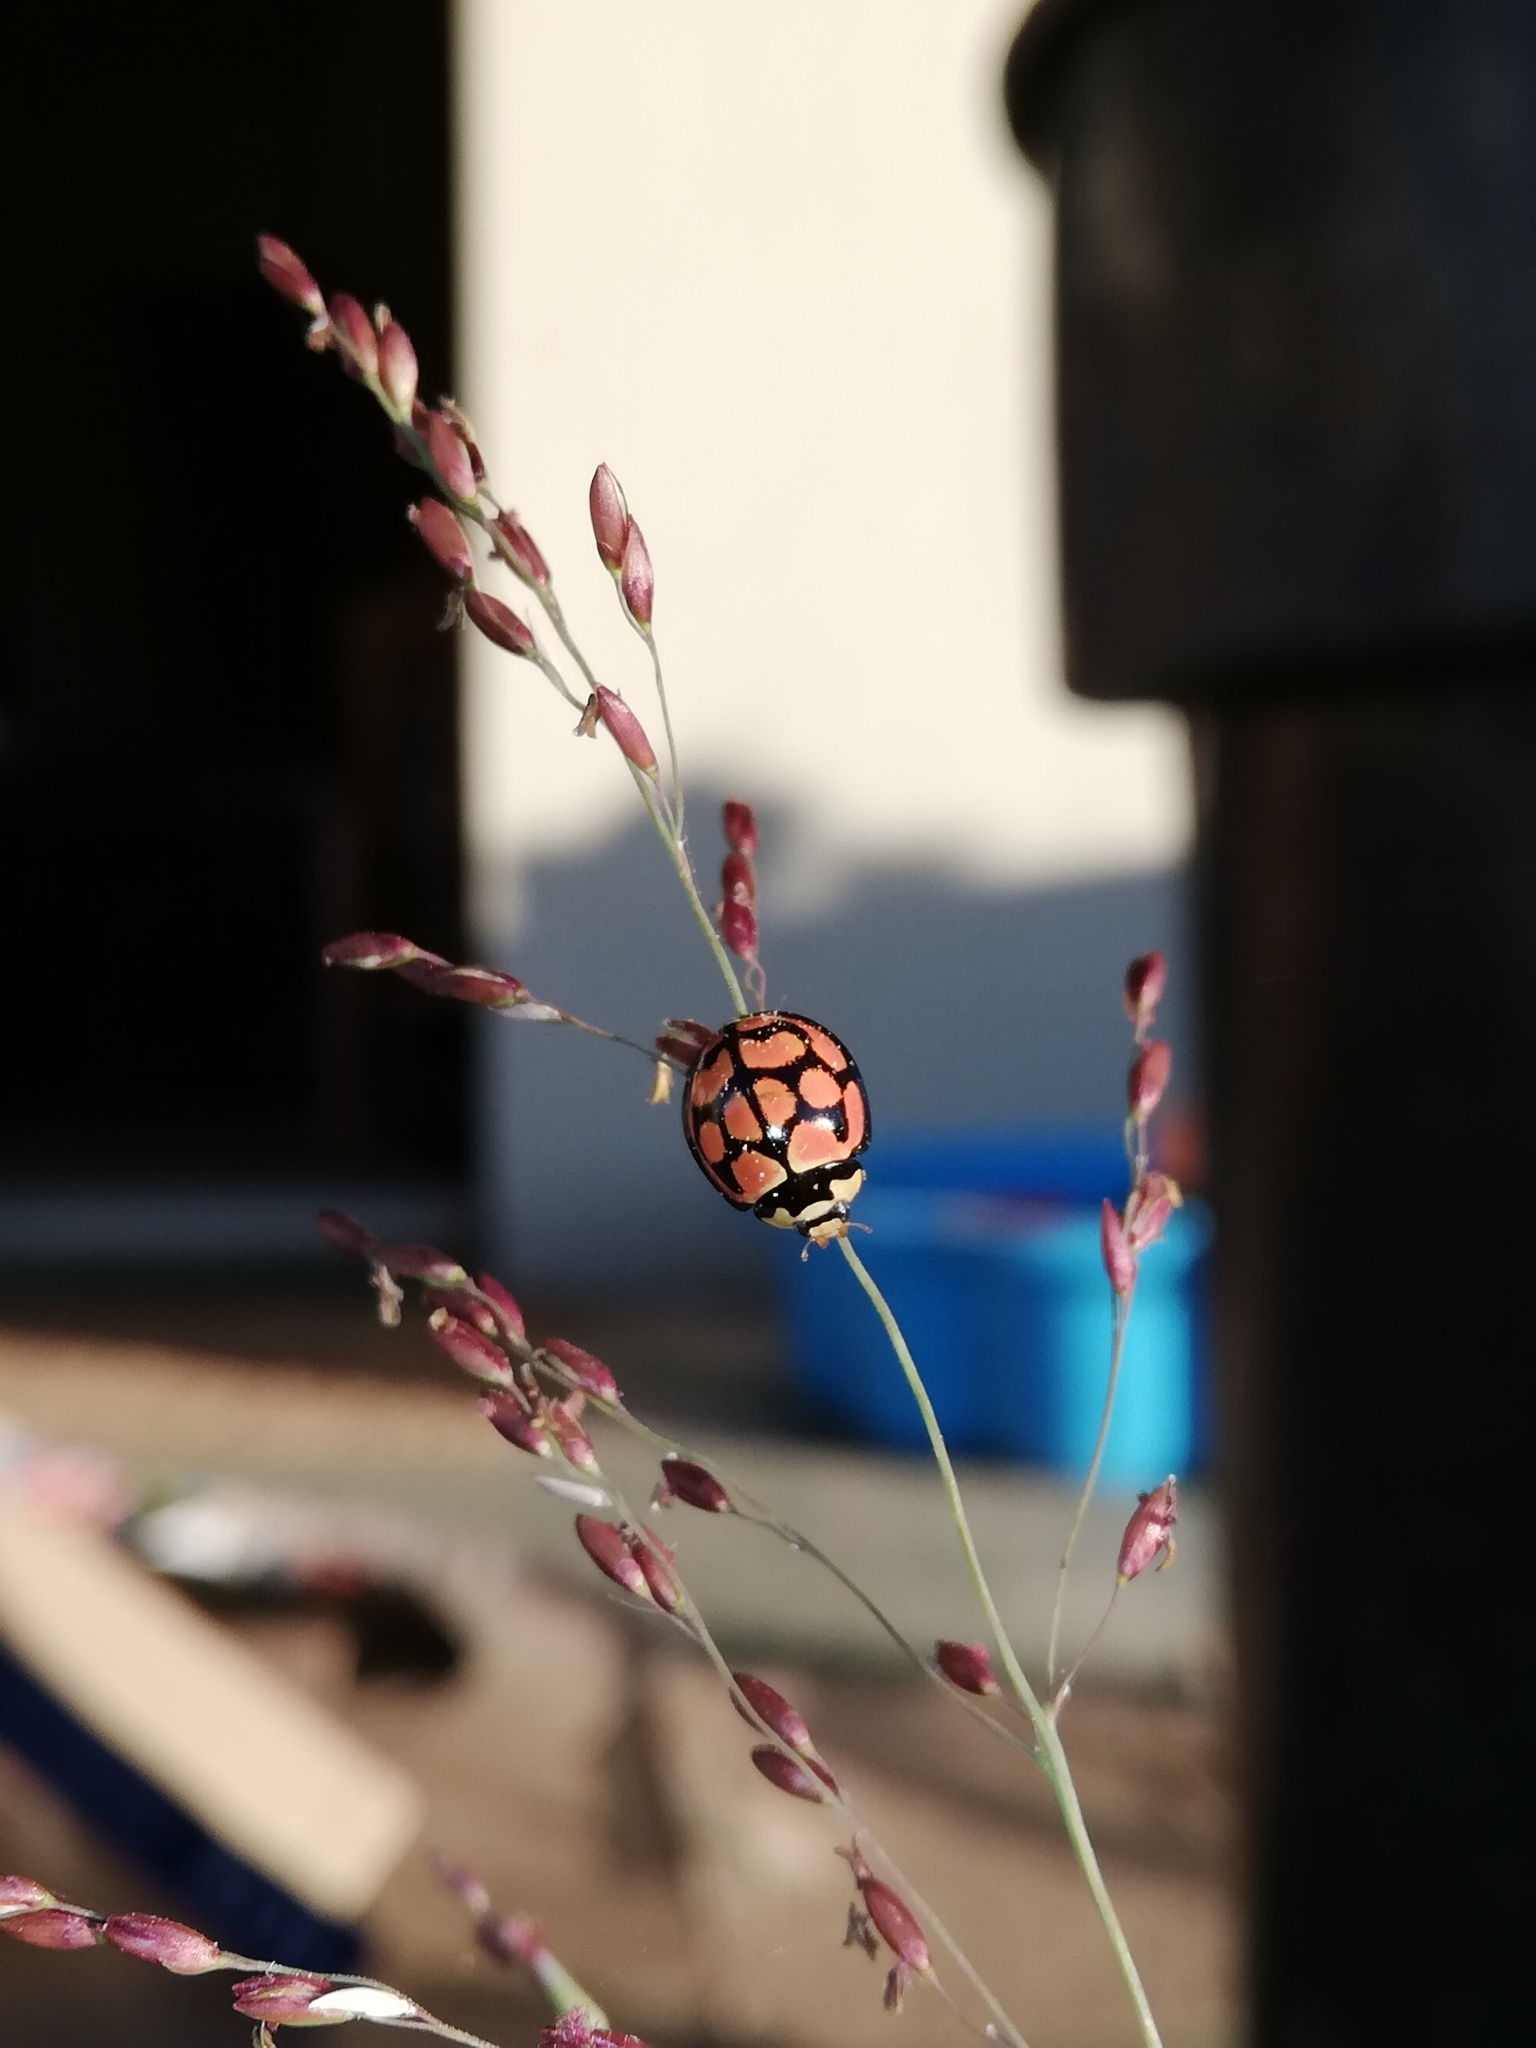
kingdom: Animalia
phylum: Arthropoda
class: Insecta
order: Coleoptera
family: Coccinellidae
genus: Cheilomenes
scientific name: Cheilomenes lunata
